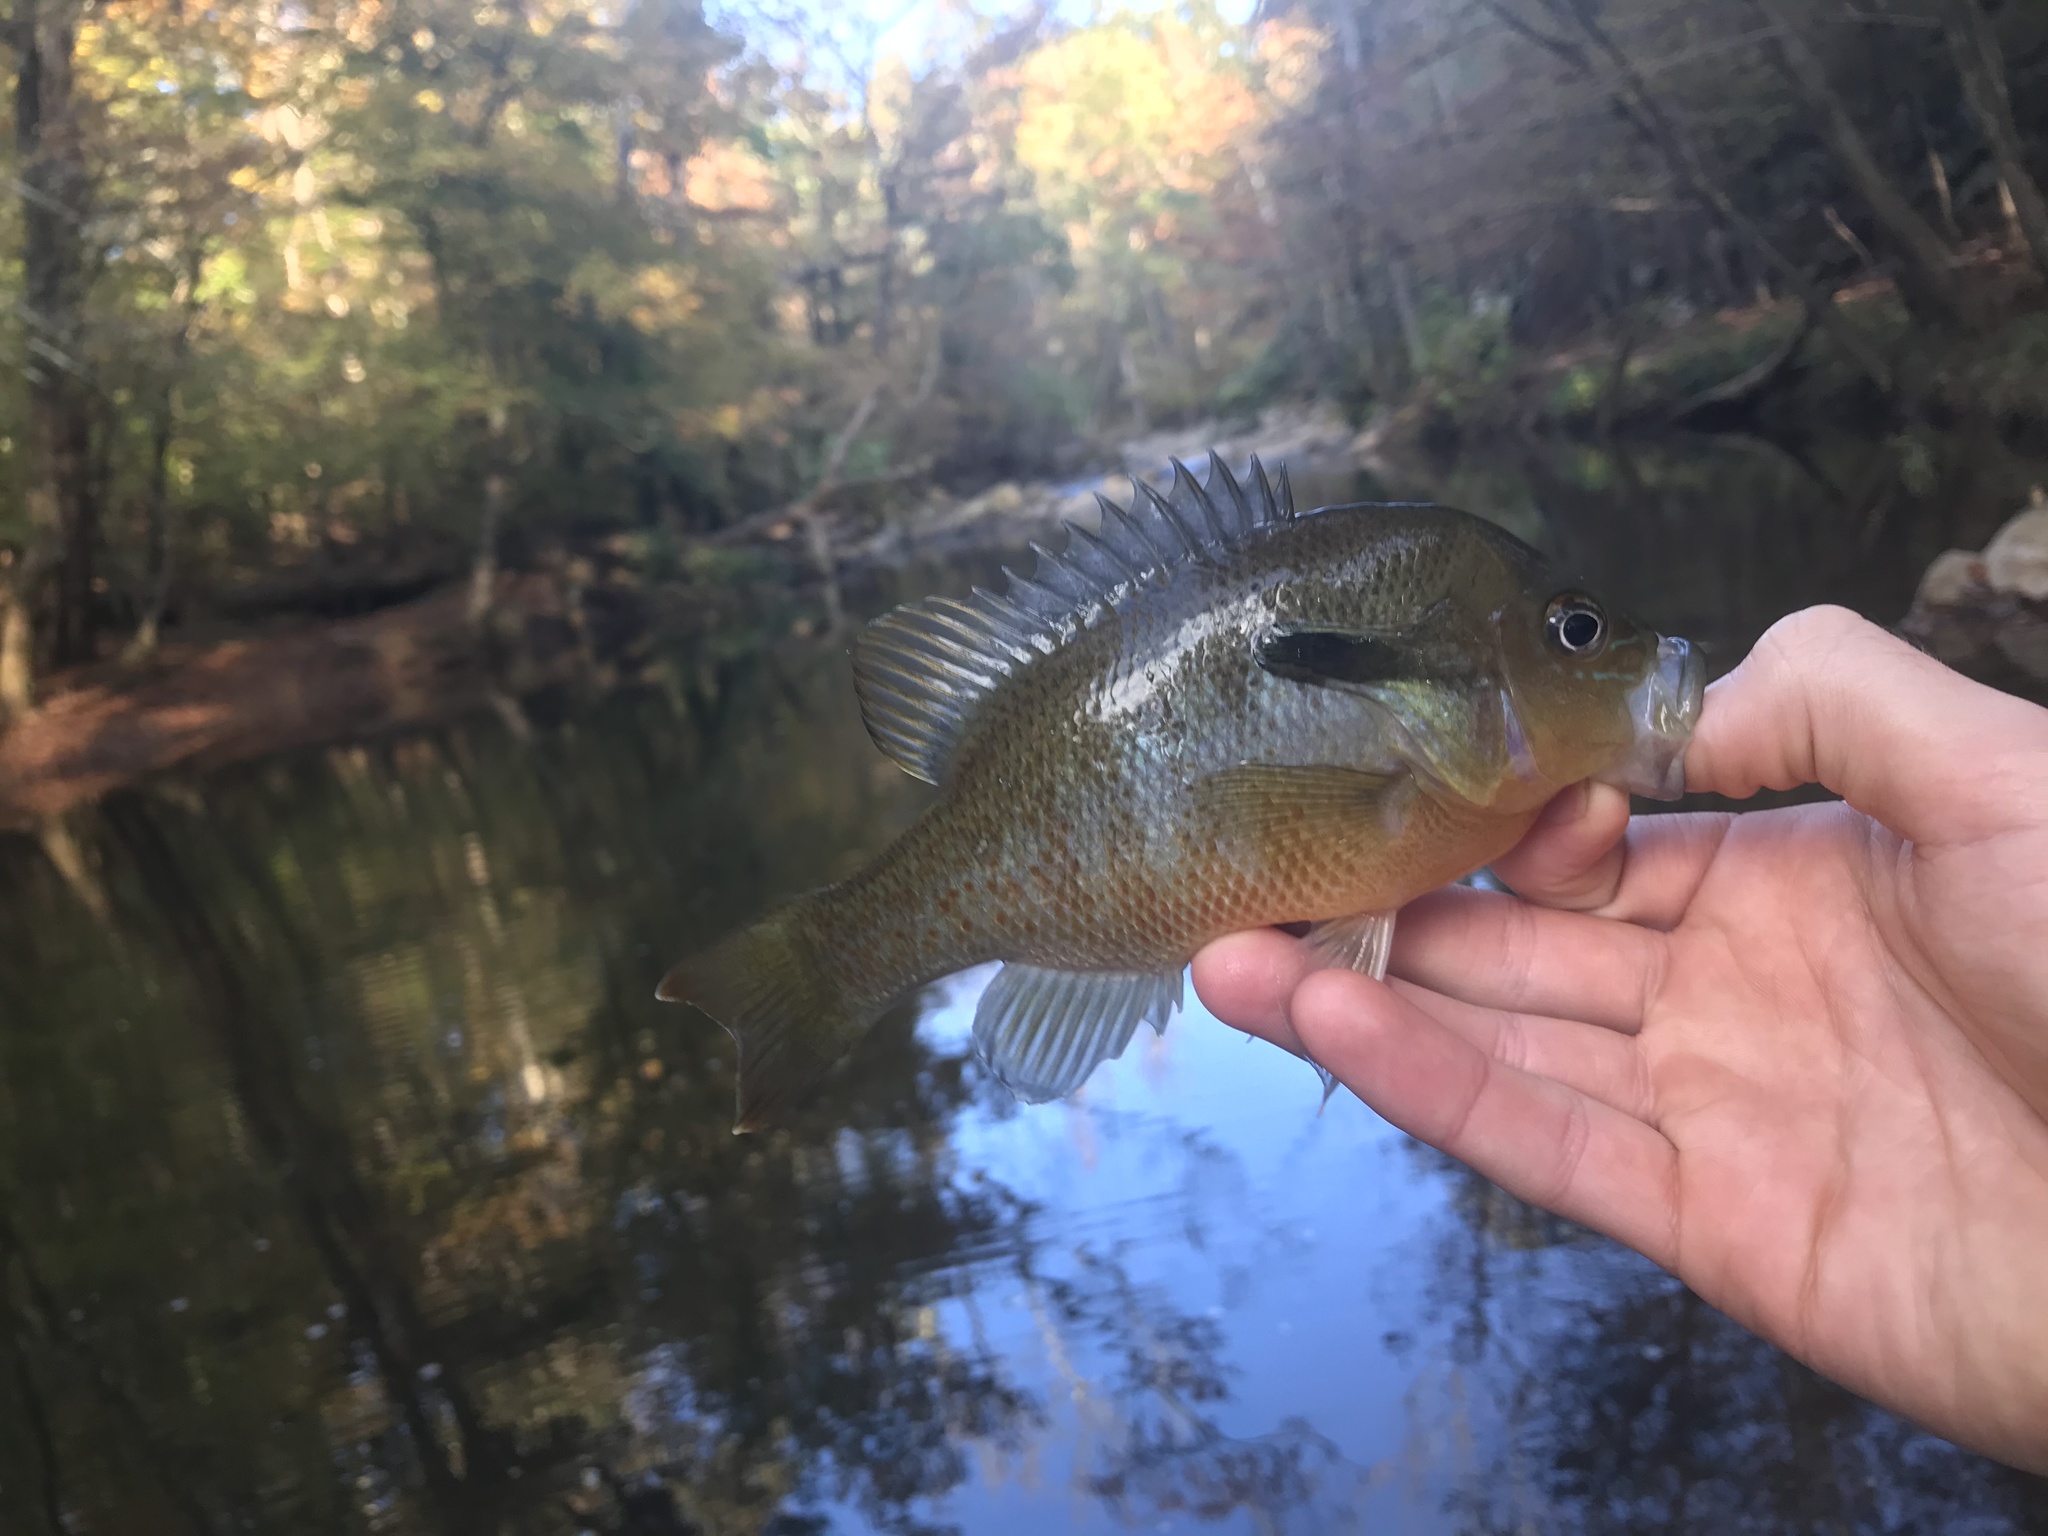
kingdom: Animalia
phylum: Chordata
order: Perciformes
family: Centrarchidae
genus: Lepomis
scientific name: Lepomis auritus
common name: Redbreast sunfish
